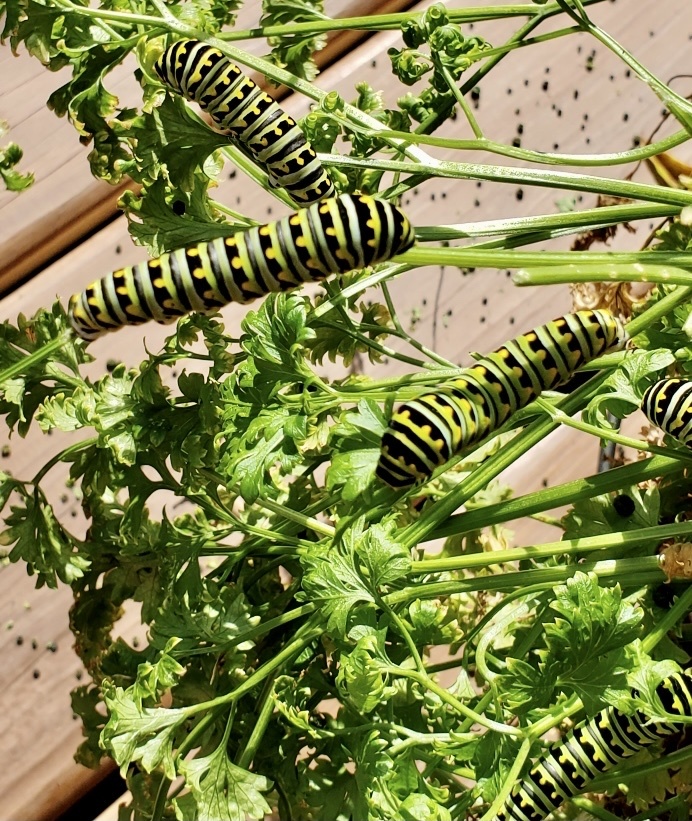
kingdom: Animalia
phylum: Arthropoda
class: Insecta
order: Lepidoptera
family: Papilionidae
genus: Papilio
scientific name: Papilio polyxenes
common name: Black swallowtail
